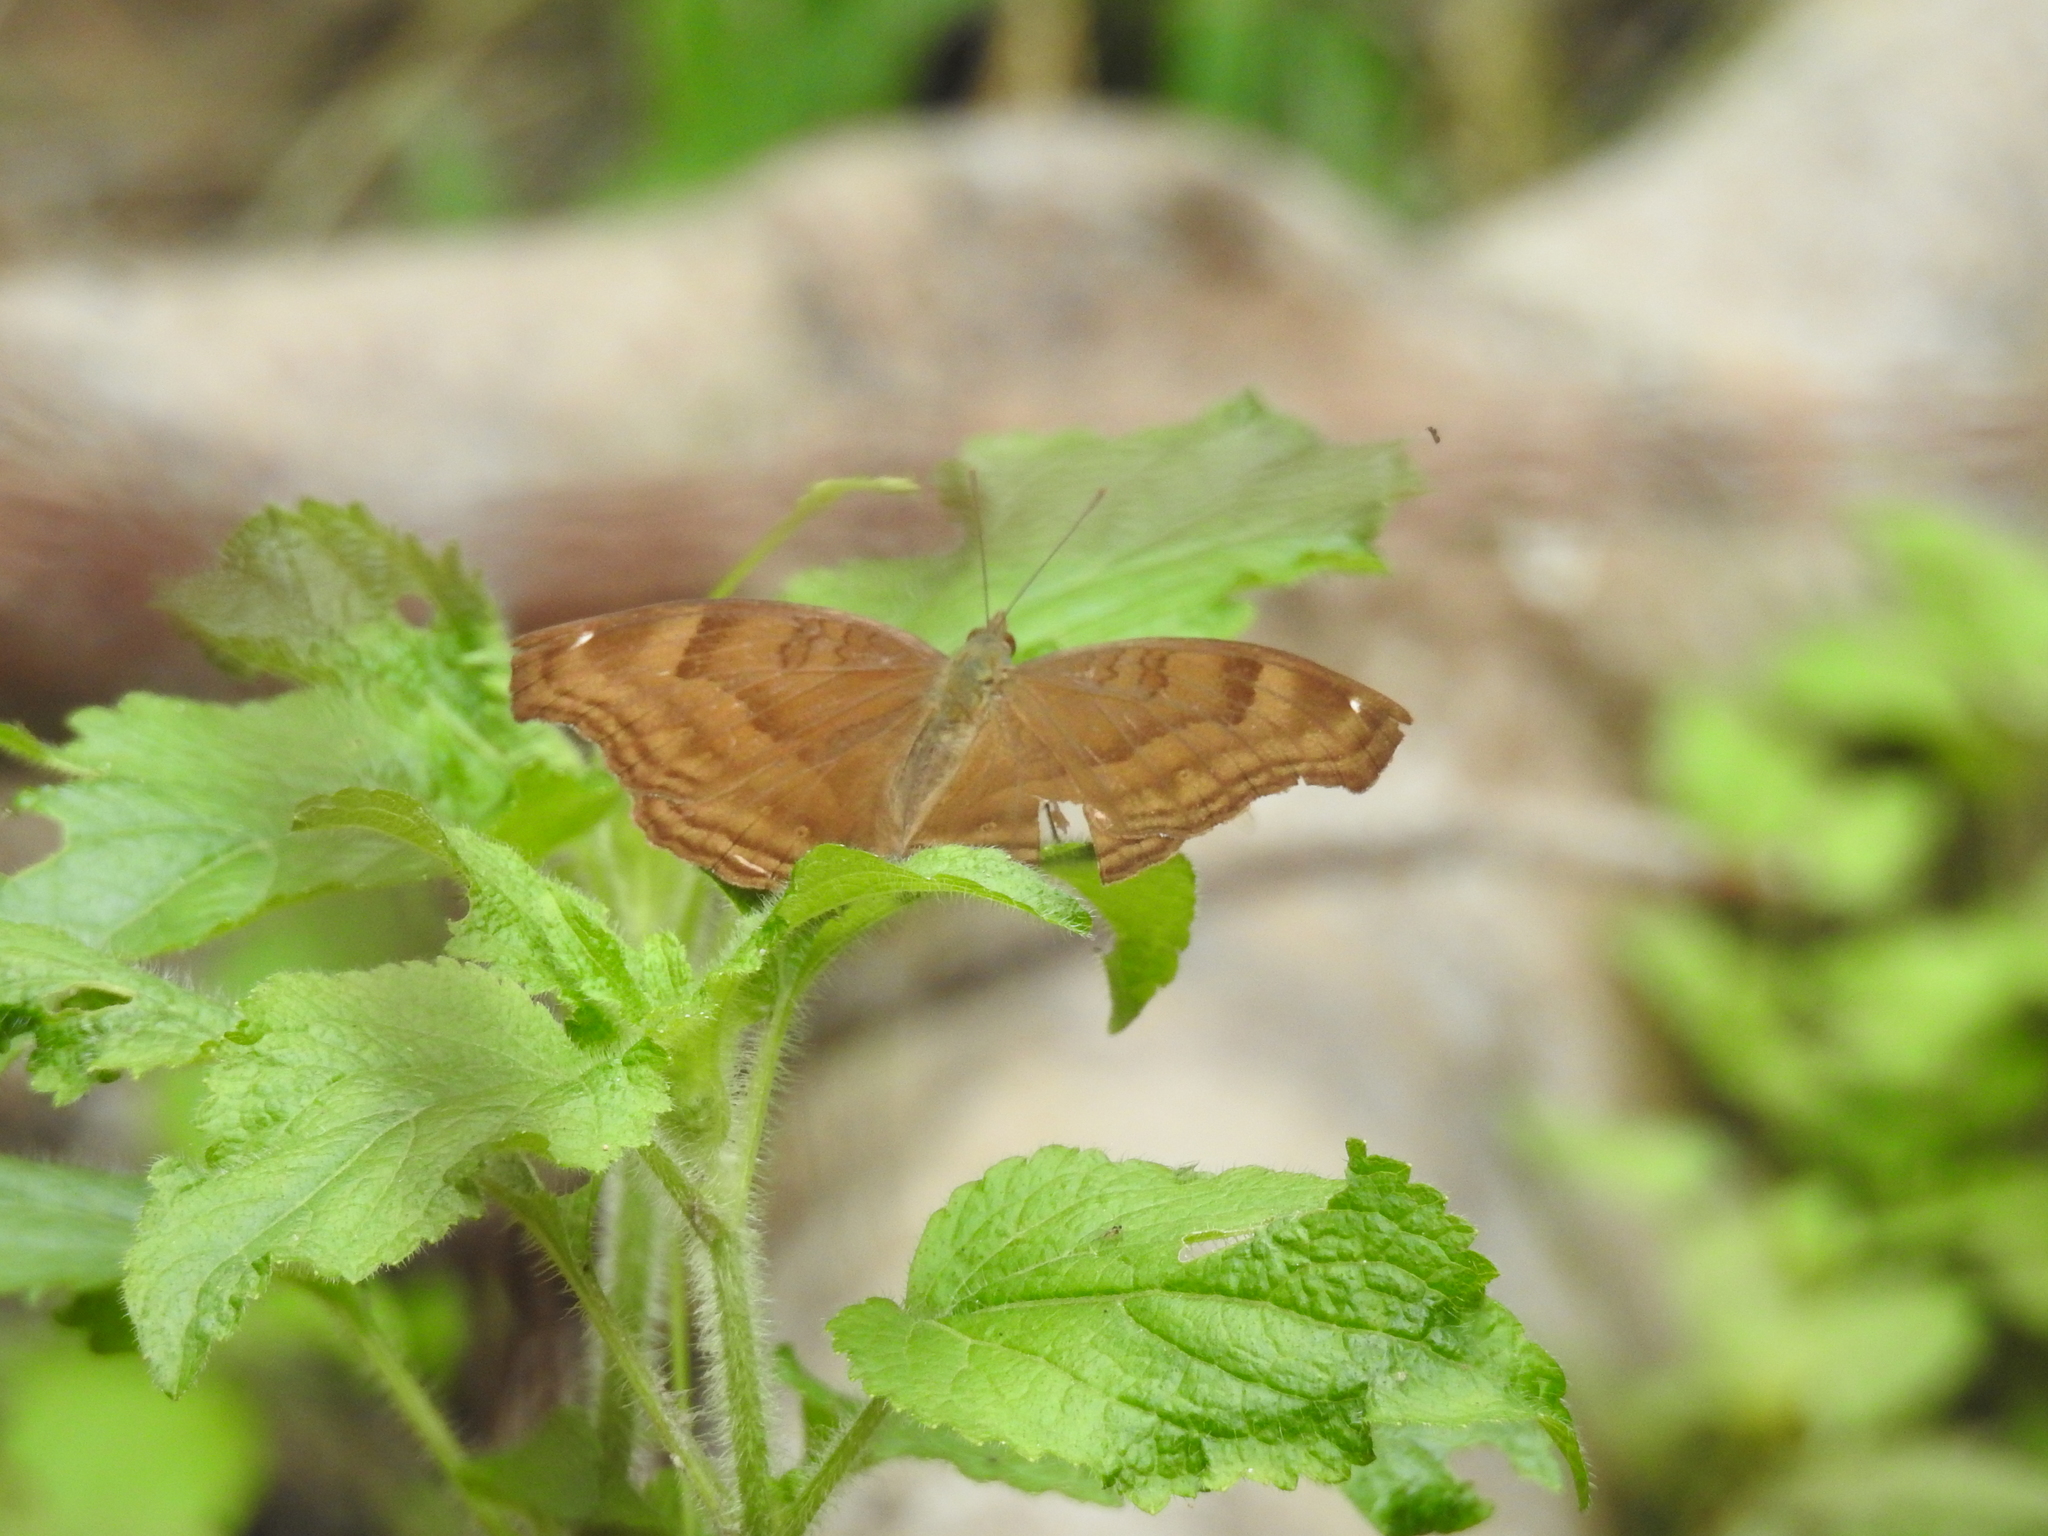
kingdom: Animalia
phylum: Arthropoda
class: Insecta
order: Lepidoptera
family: Nymphalidae
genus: Junonia
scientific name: Junonia iphita
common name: Chocolate pansy
